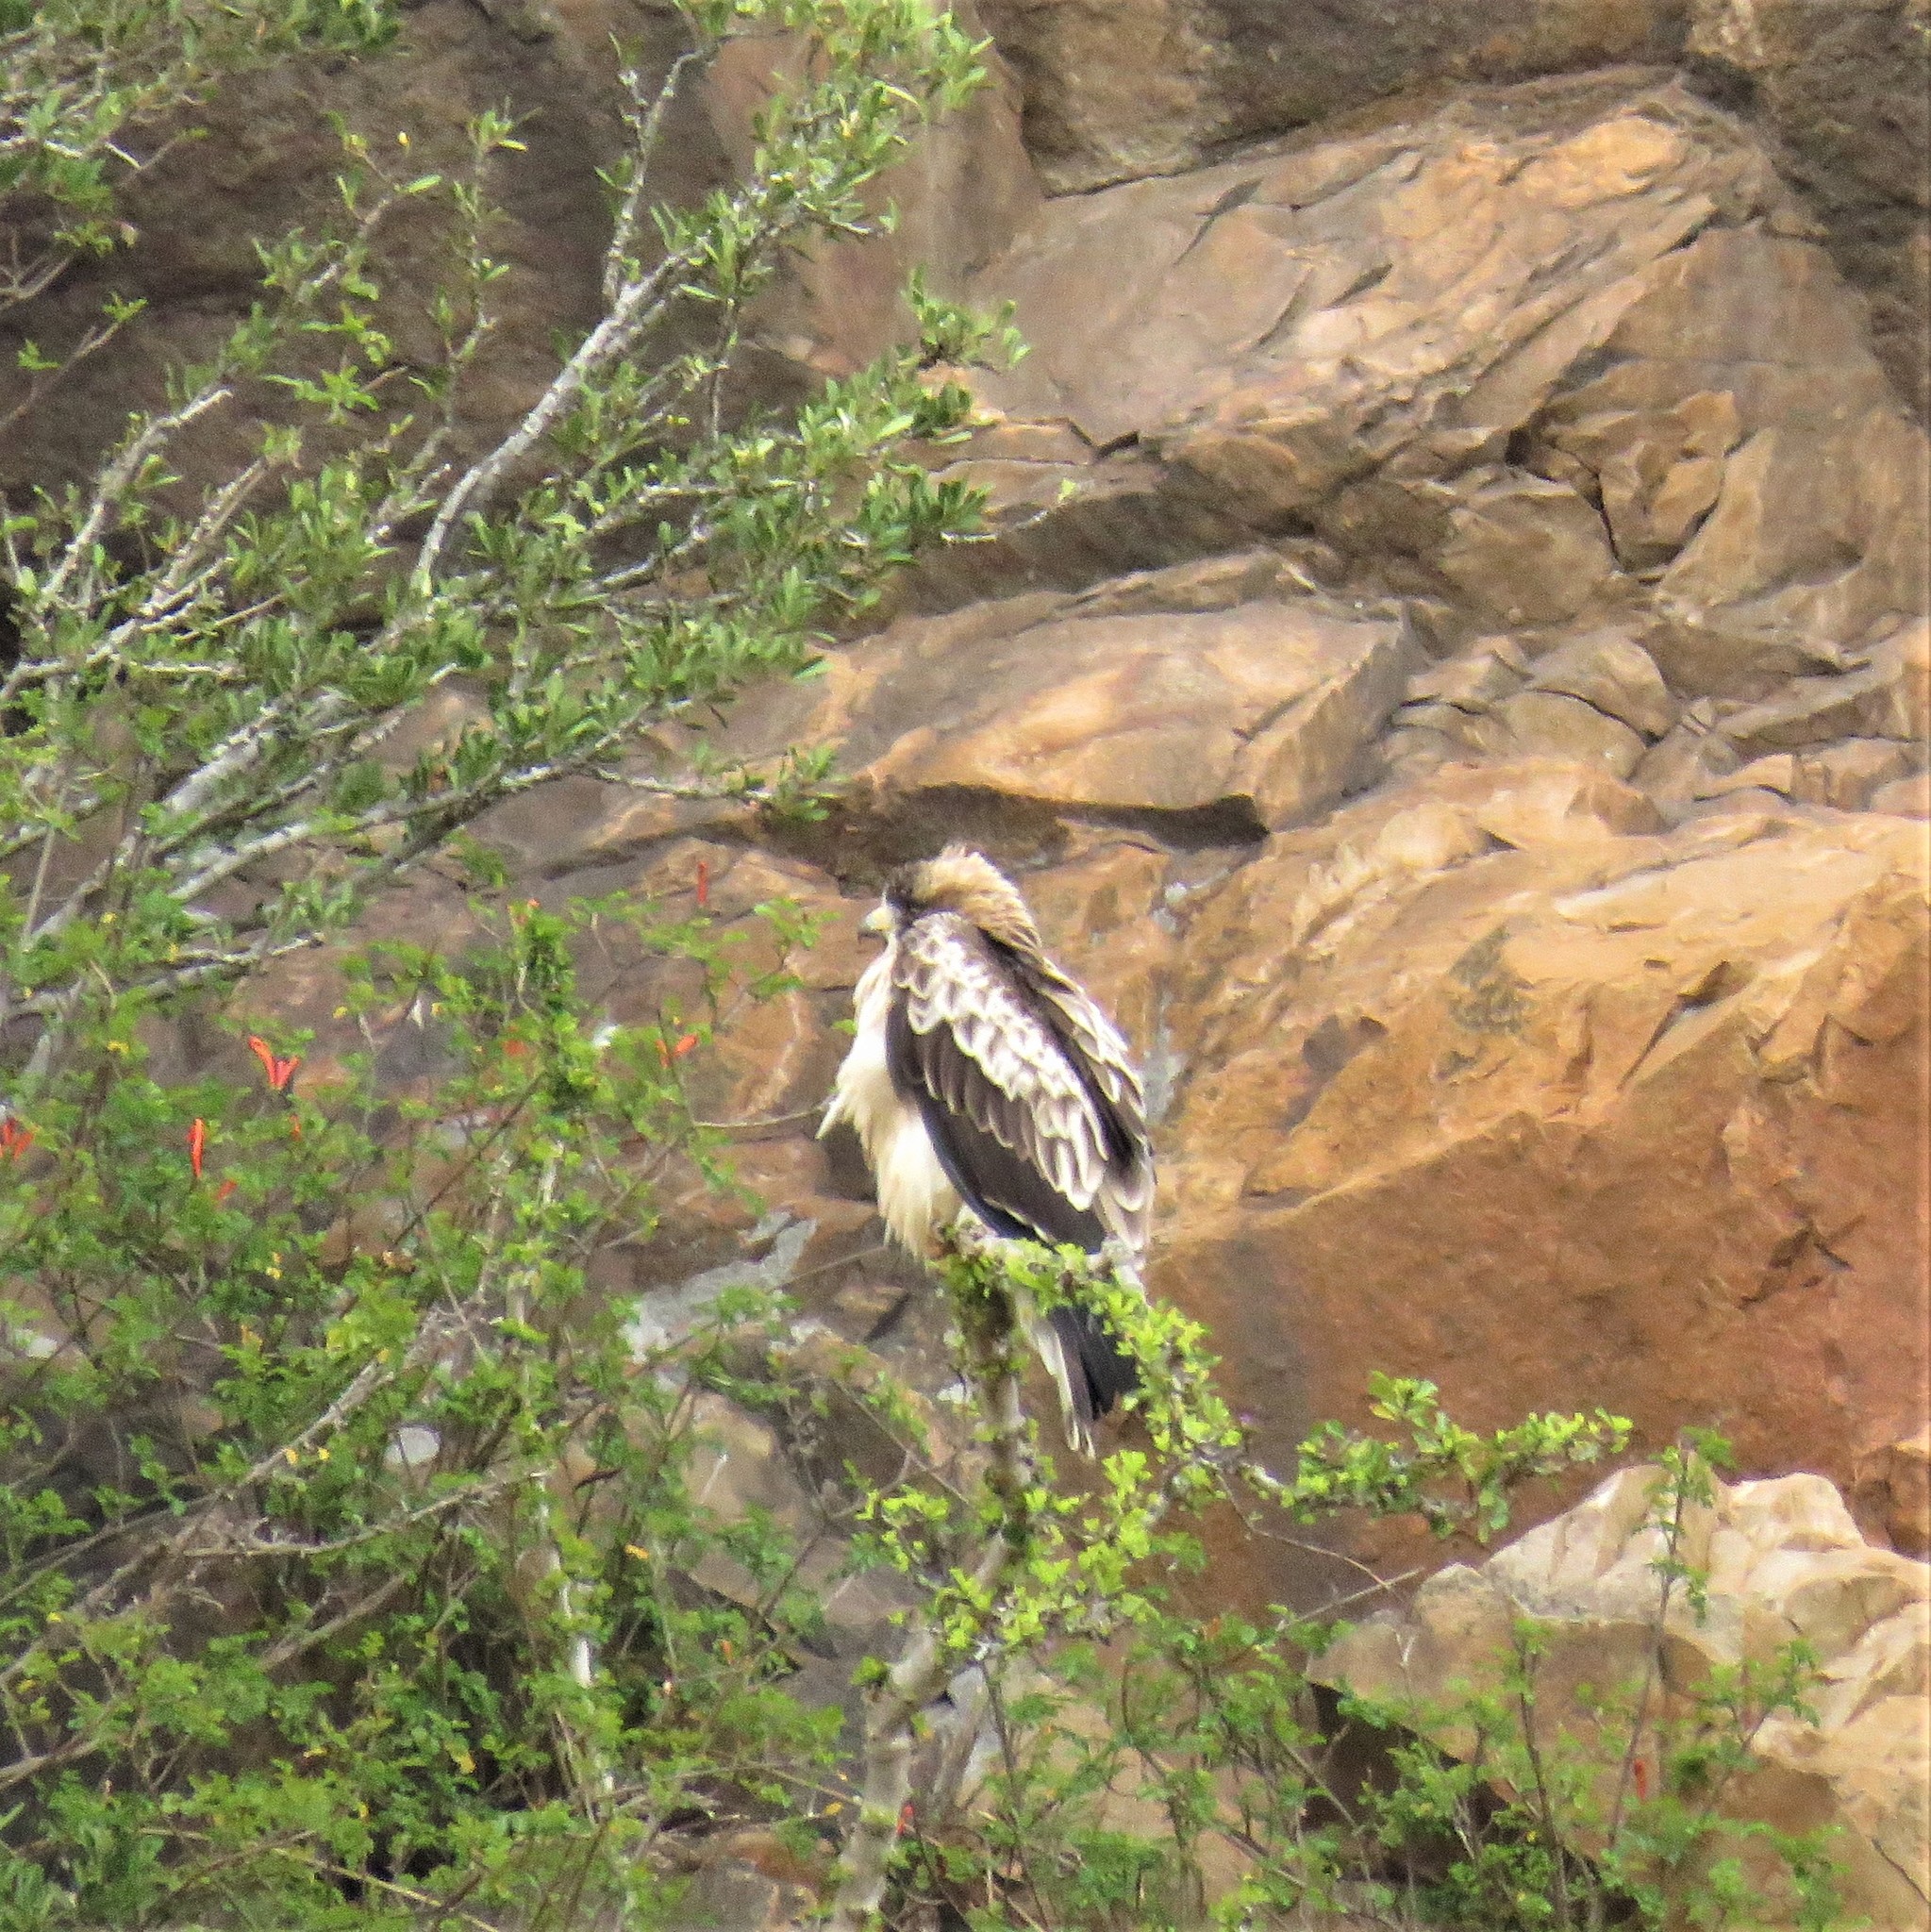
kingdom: Animalia
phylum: Chordata
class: Aves
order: Accipitriformes
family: Accipitridae
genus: Hieraaetus
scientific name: Hieraaetus pennatus
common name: Booted eagle
